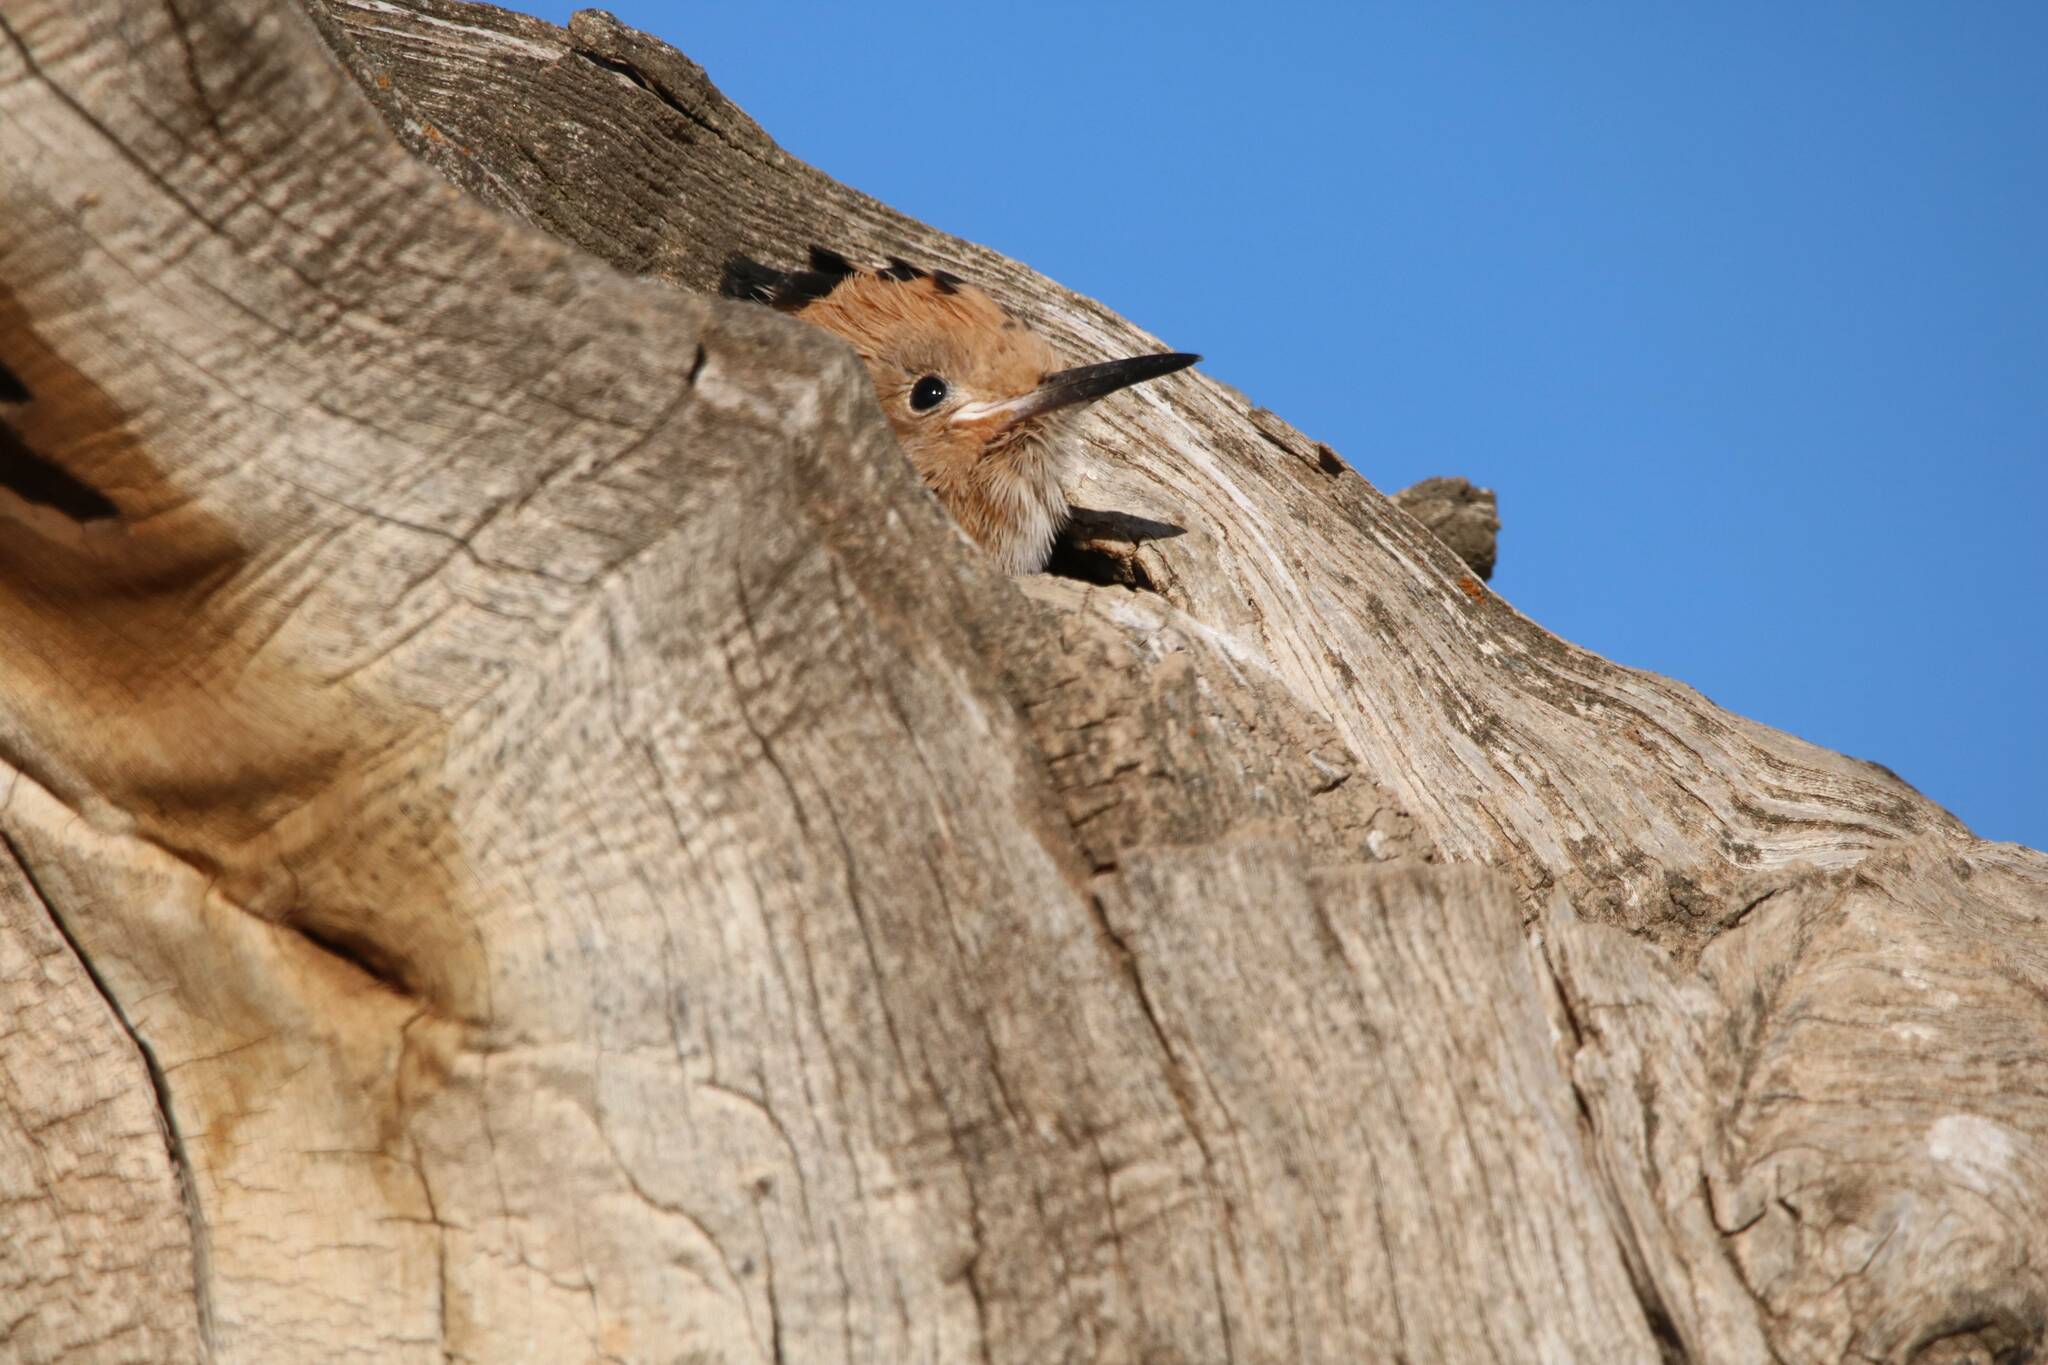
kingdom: Animalia
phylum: Chordata
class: Aves
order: Bucerotiformes
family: Upupidae
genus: Upupa
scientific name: Upupa epops
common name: Eurasian hoopoe
